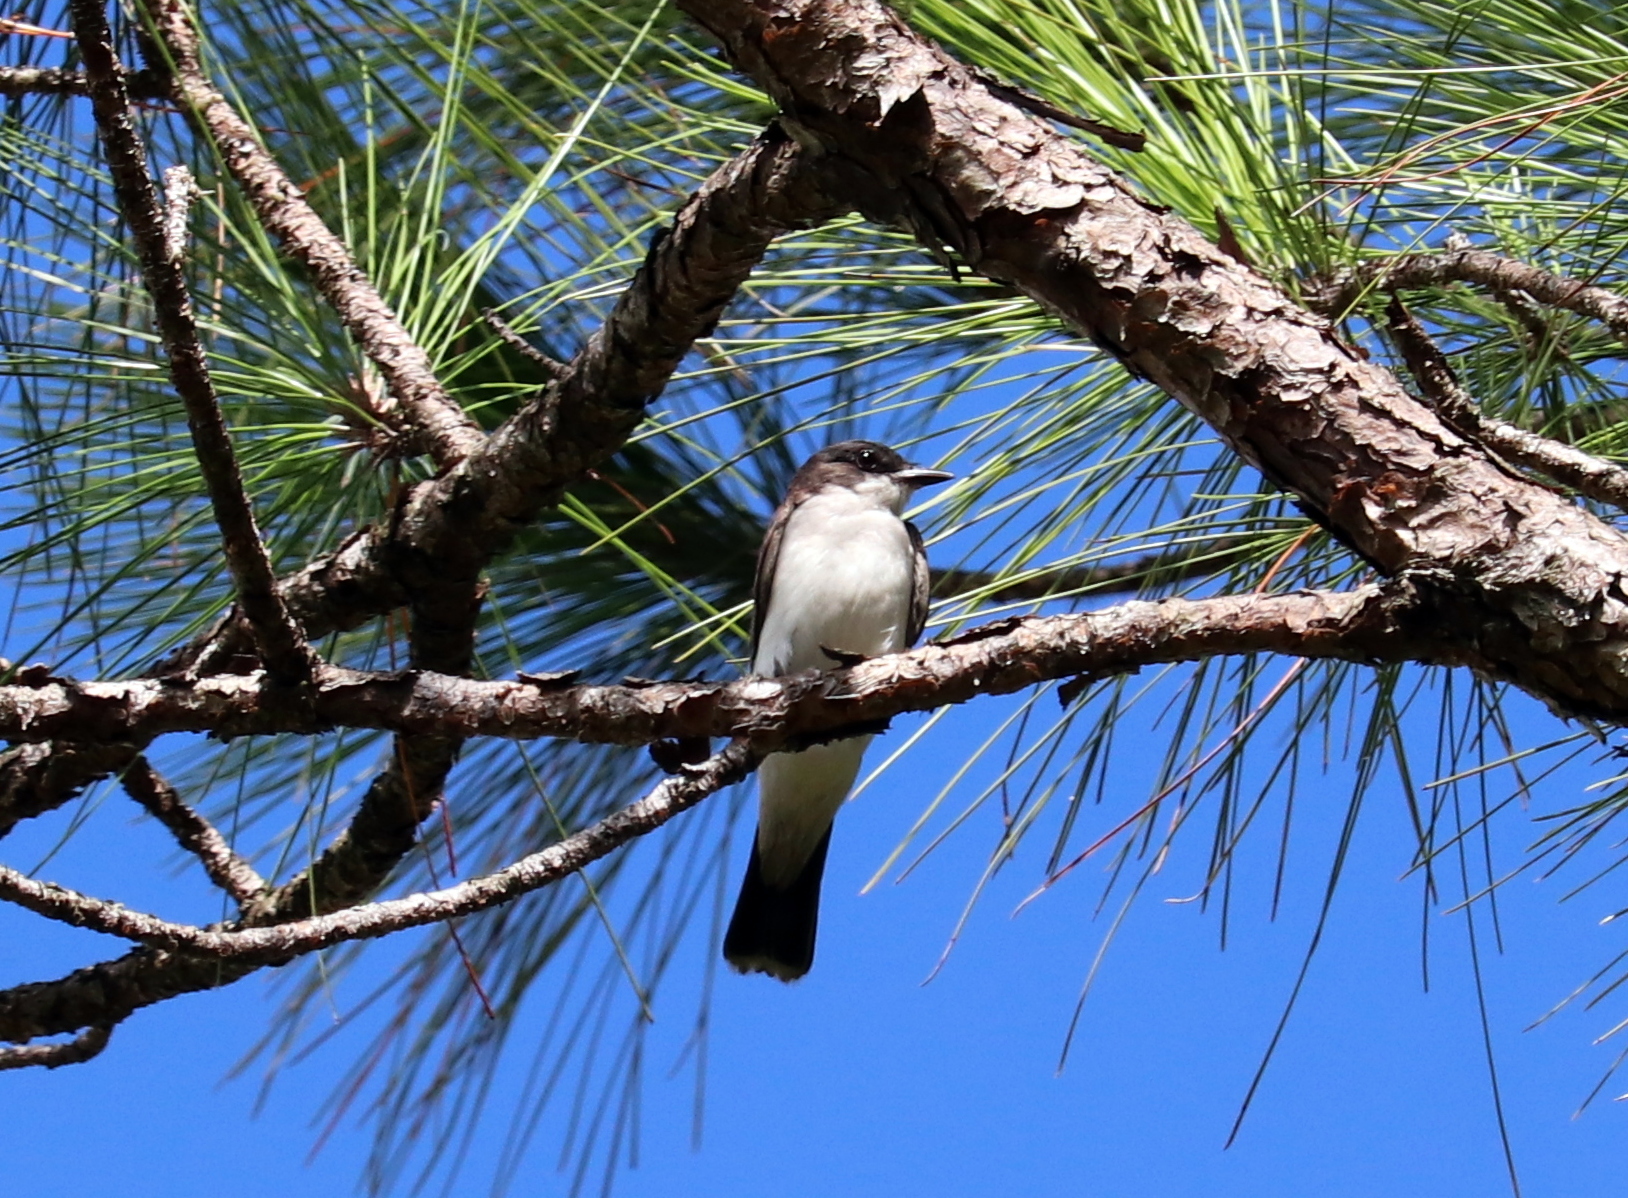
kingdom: Animalia
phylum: Chordata
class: Aves
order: Passeriformes
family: Tyrannidae
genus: Tyrannus
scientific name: Tyrannus tyrannus
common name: Eastern kingbird
